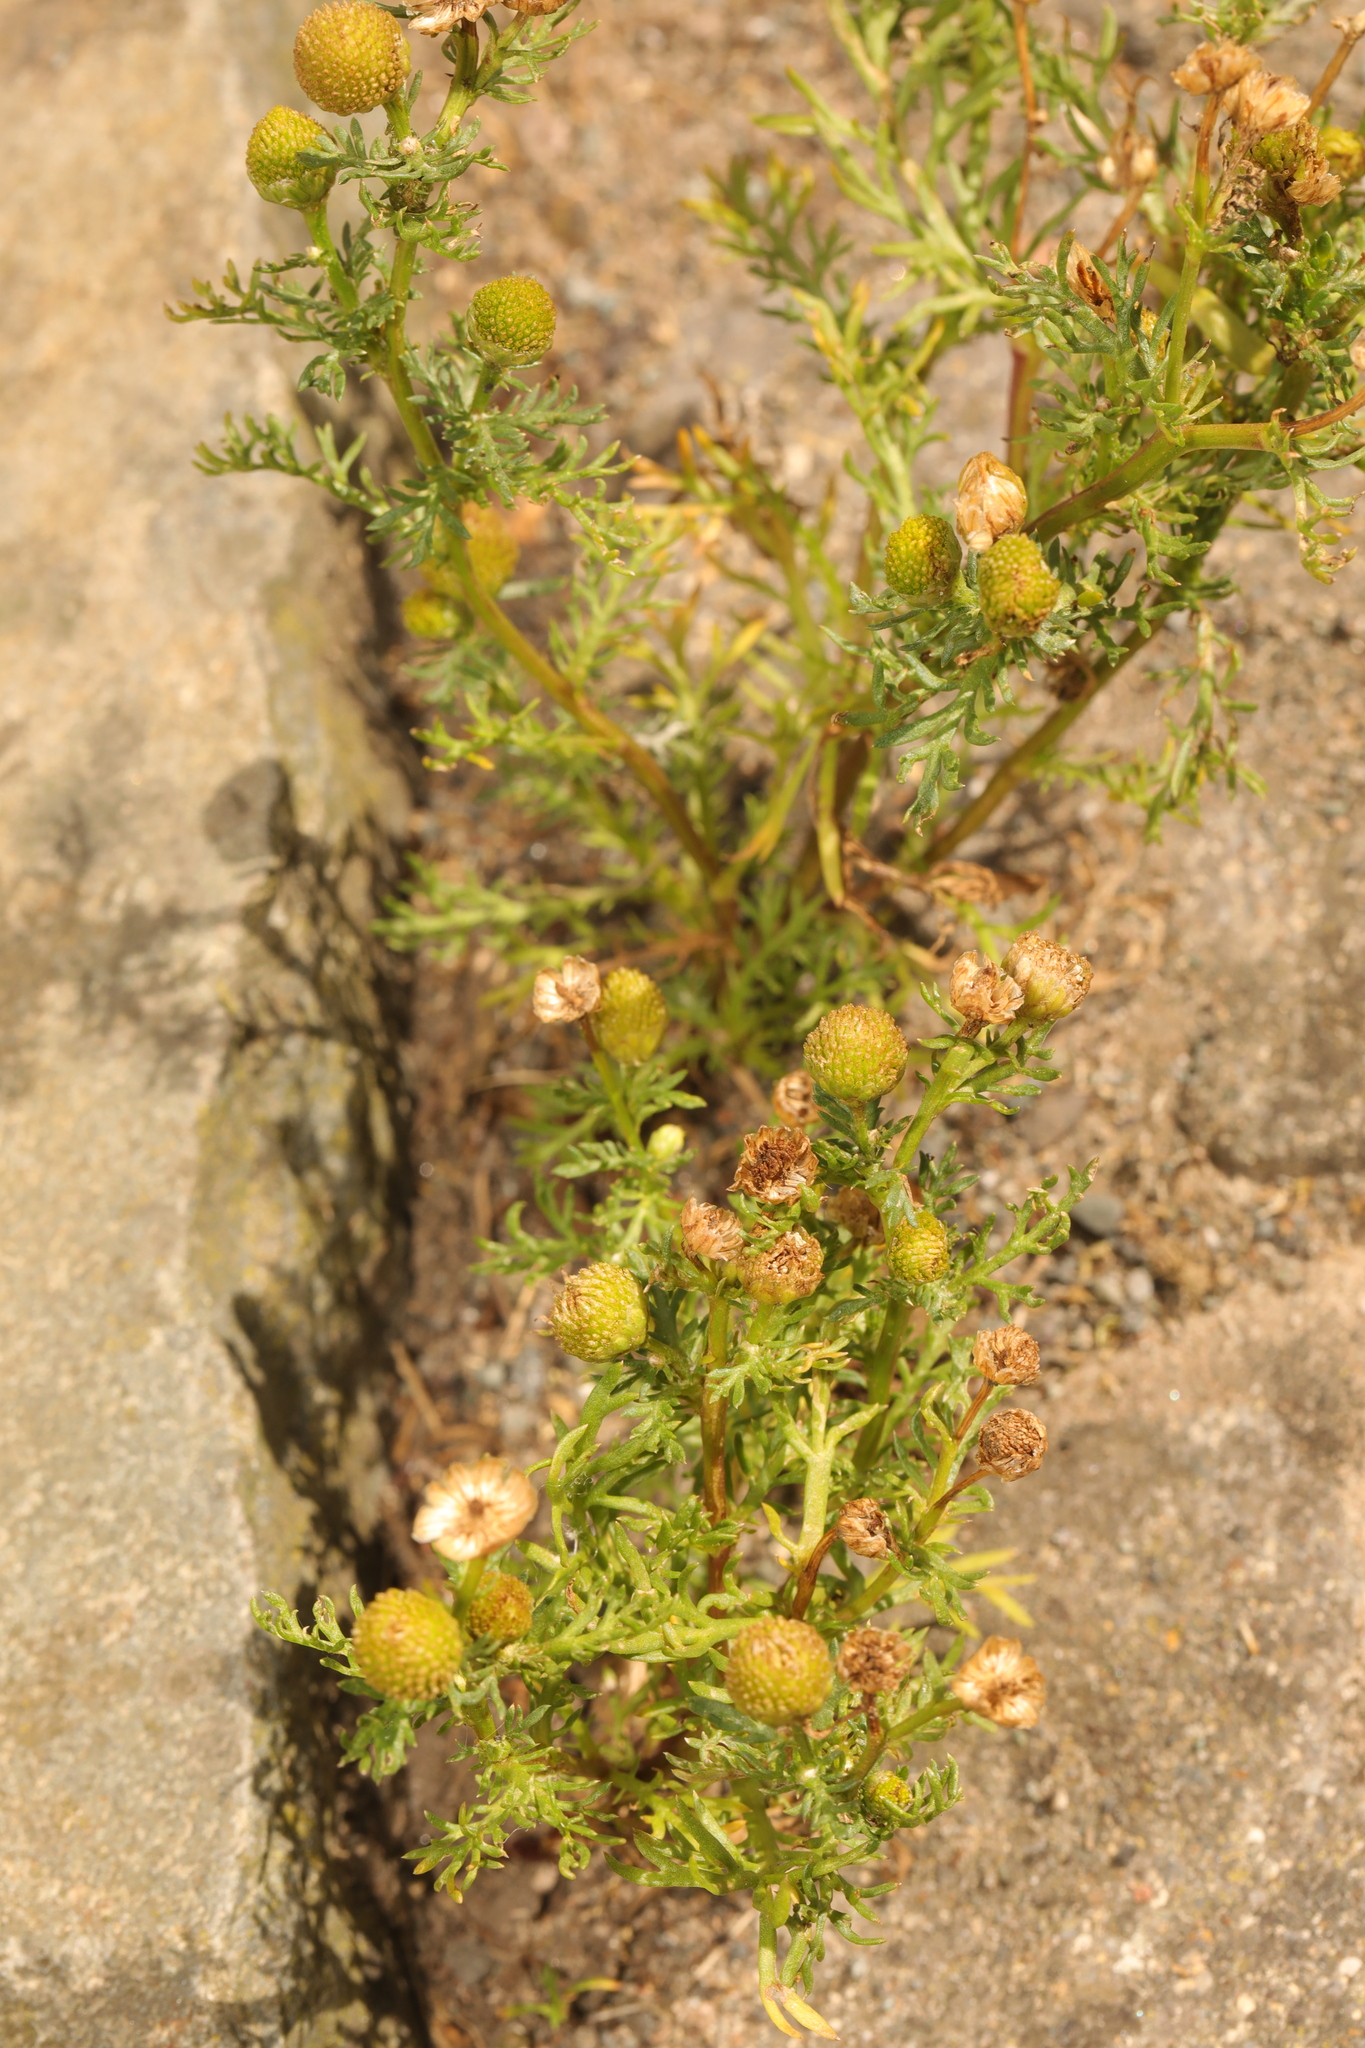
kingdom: Plantae
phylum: Tracheophyta
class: Magnoliopsida
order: Asterales
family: Asteraceae
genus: Matricaria
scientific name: Matricaria discoidea
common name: Disc mayweed
